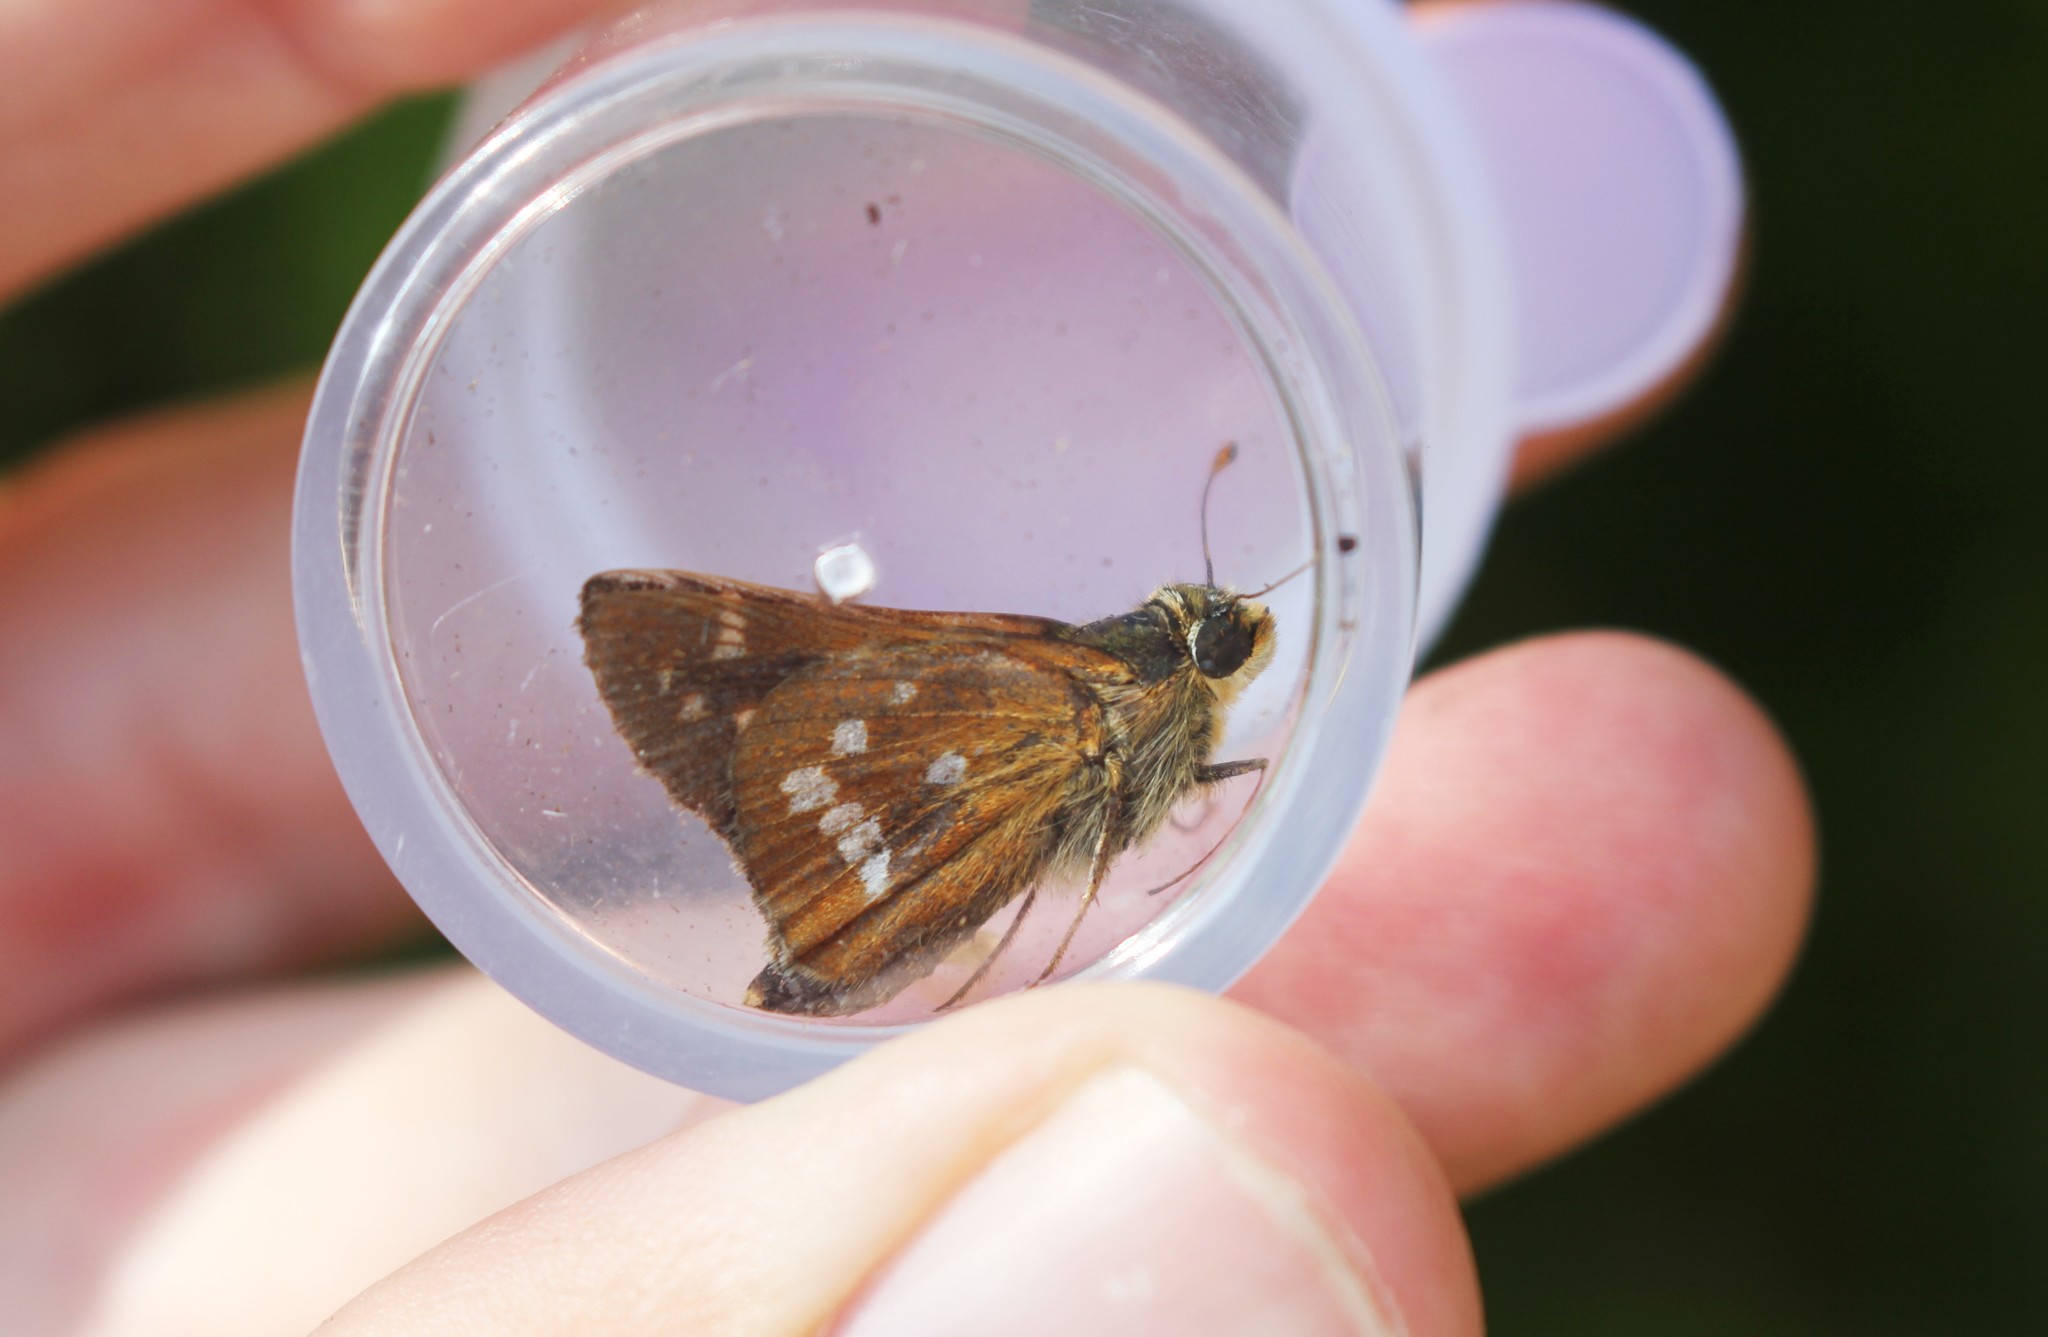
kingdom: Animalia
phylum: Arthropoda
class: Insecta
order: Lepidoptera
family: Hesperiidae
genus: Hesperia
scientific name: Hesperia leonardus
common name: Leonard's skipper
